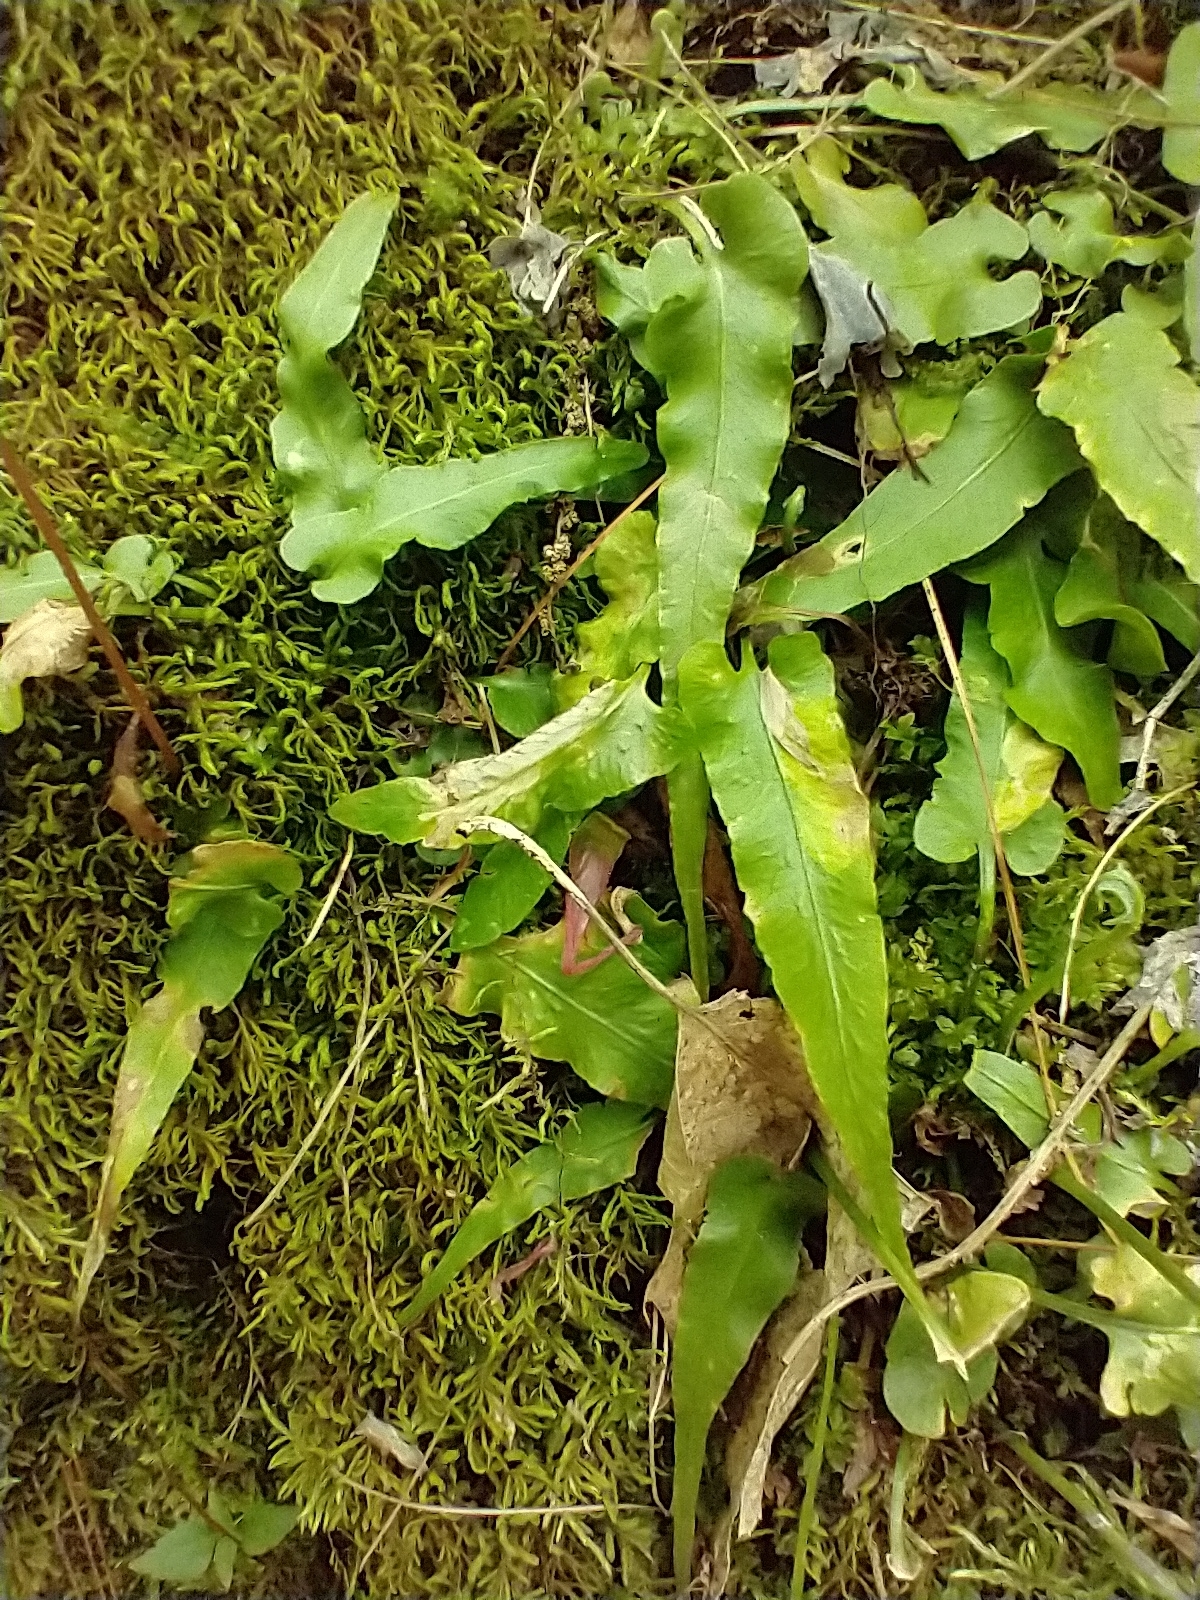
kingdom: Plantae
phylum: Tracheophyta
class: Polypodiopsida
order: Polypodiales
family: Aspleniaceae
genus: Asplenium
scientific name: Asplenium rhizophyllum
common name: Walking fern
